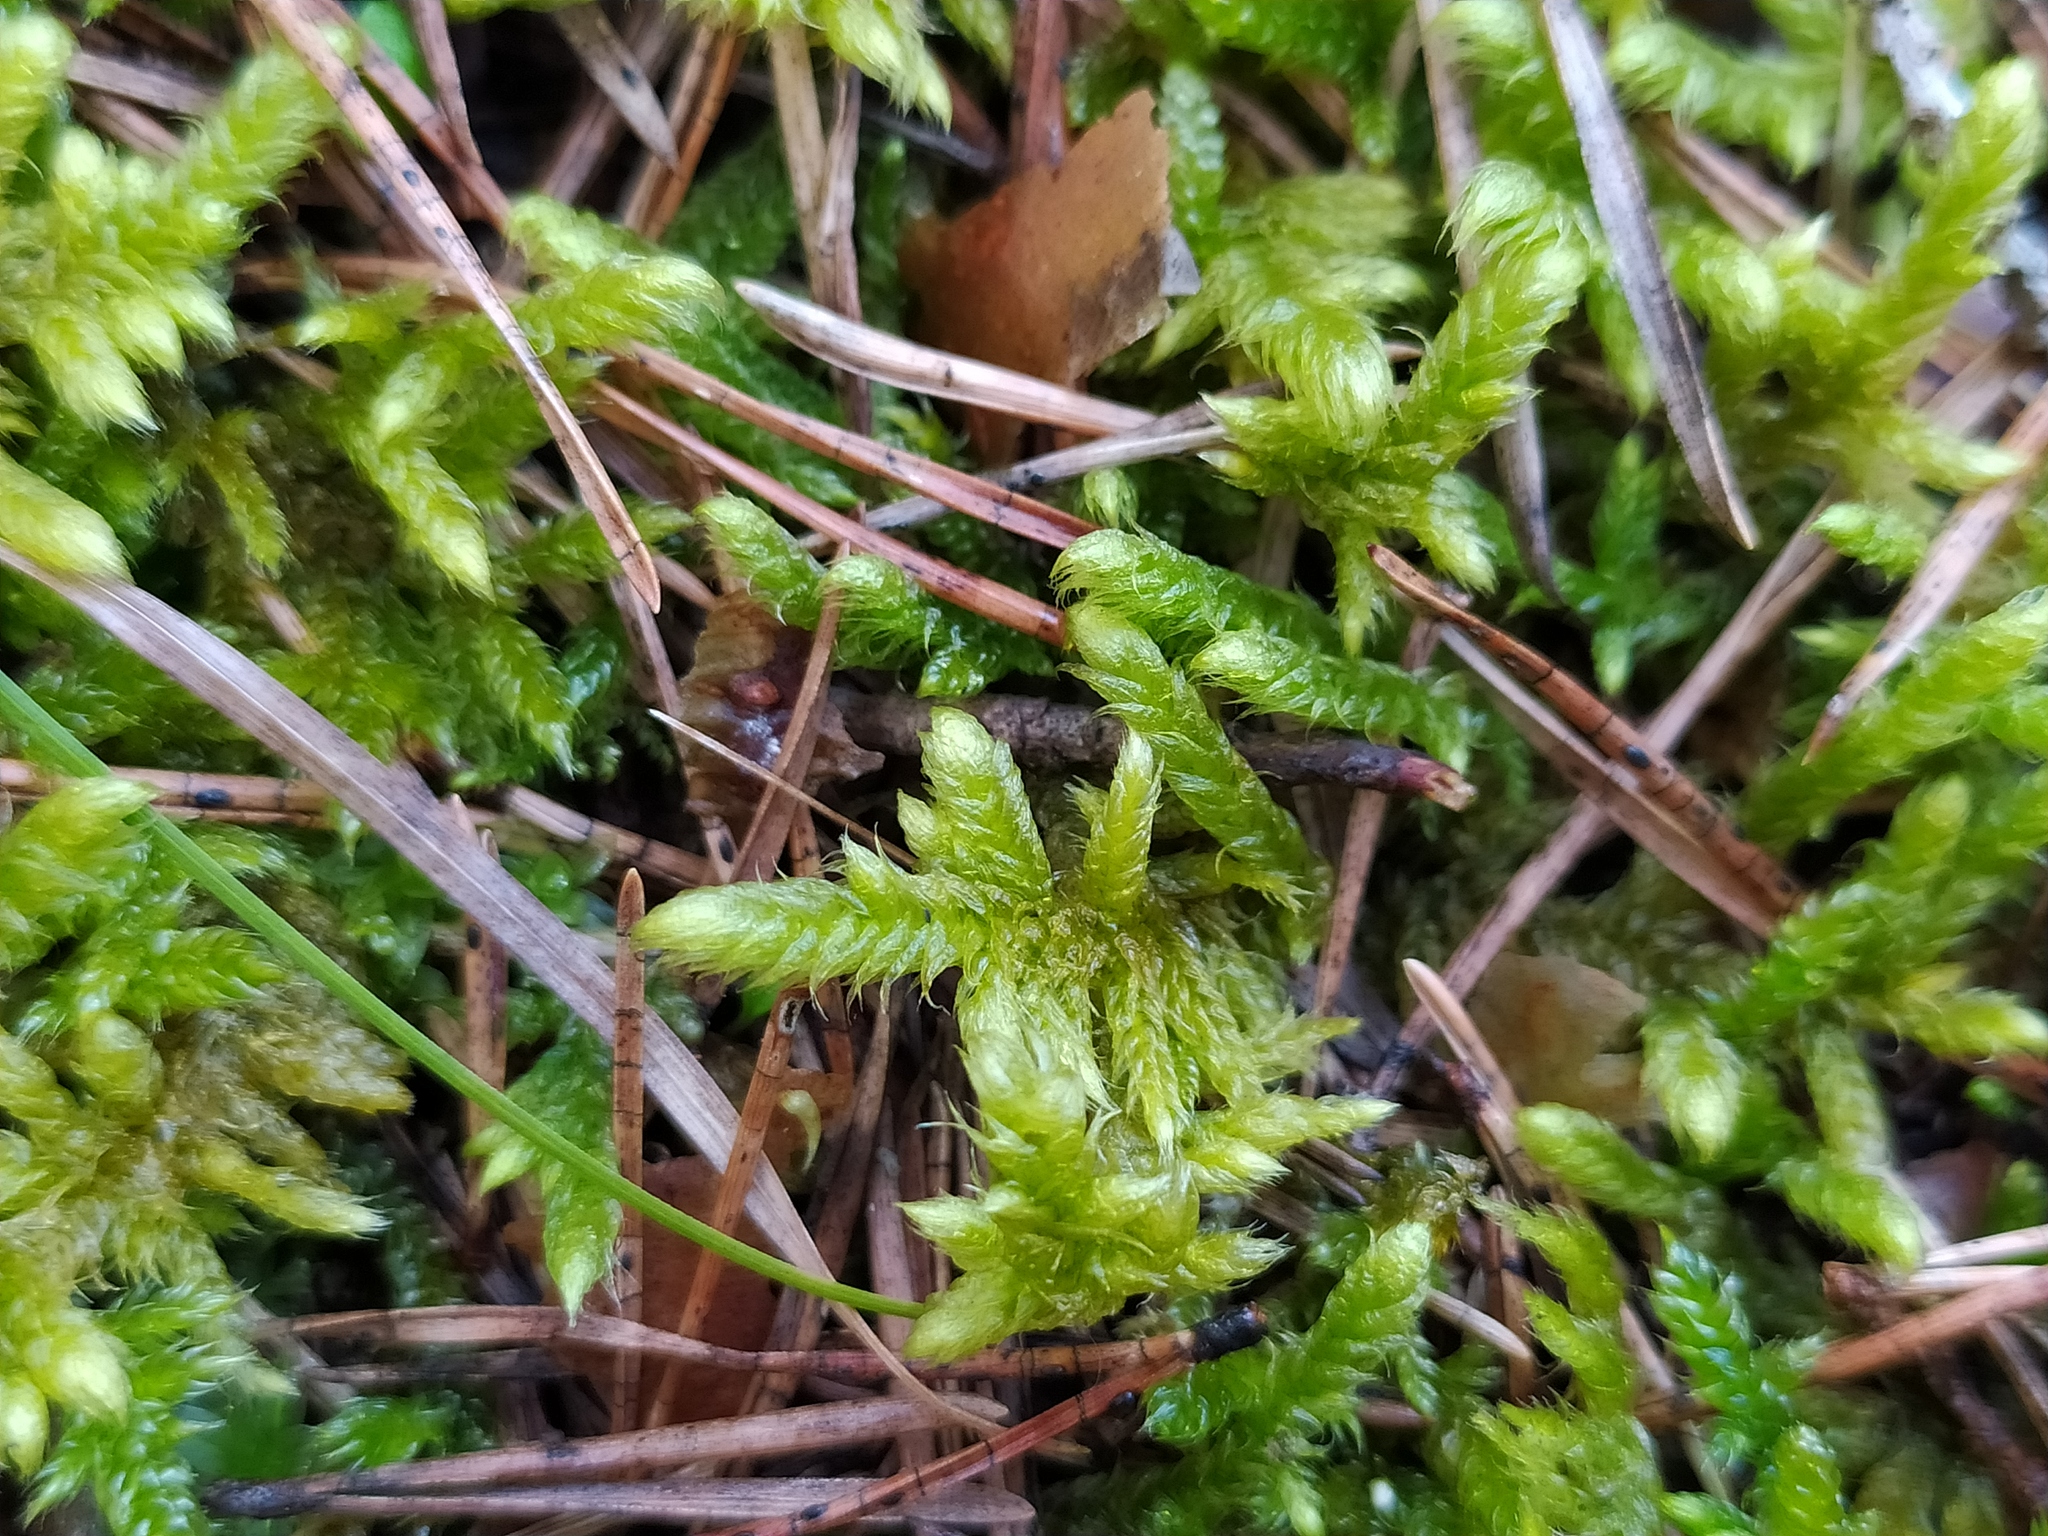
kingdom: Plantae
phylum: Bryophyta
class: Bryopsida
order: Hypnales
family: Rhytidiaceae
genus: Rhytidium
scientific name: Rhytidium rugosum
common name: Wrinkle-leaved moss
